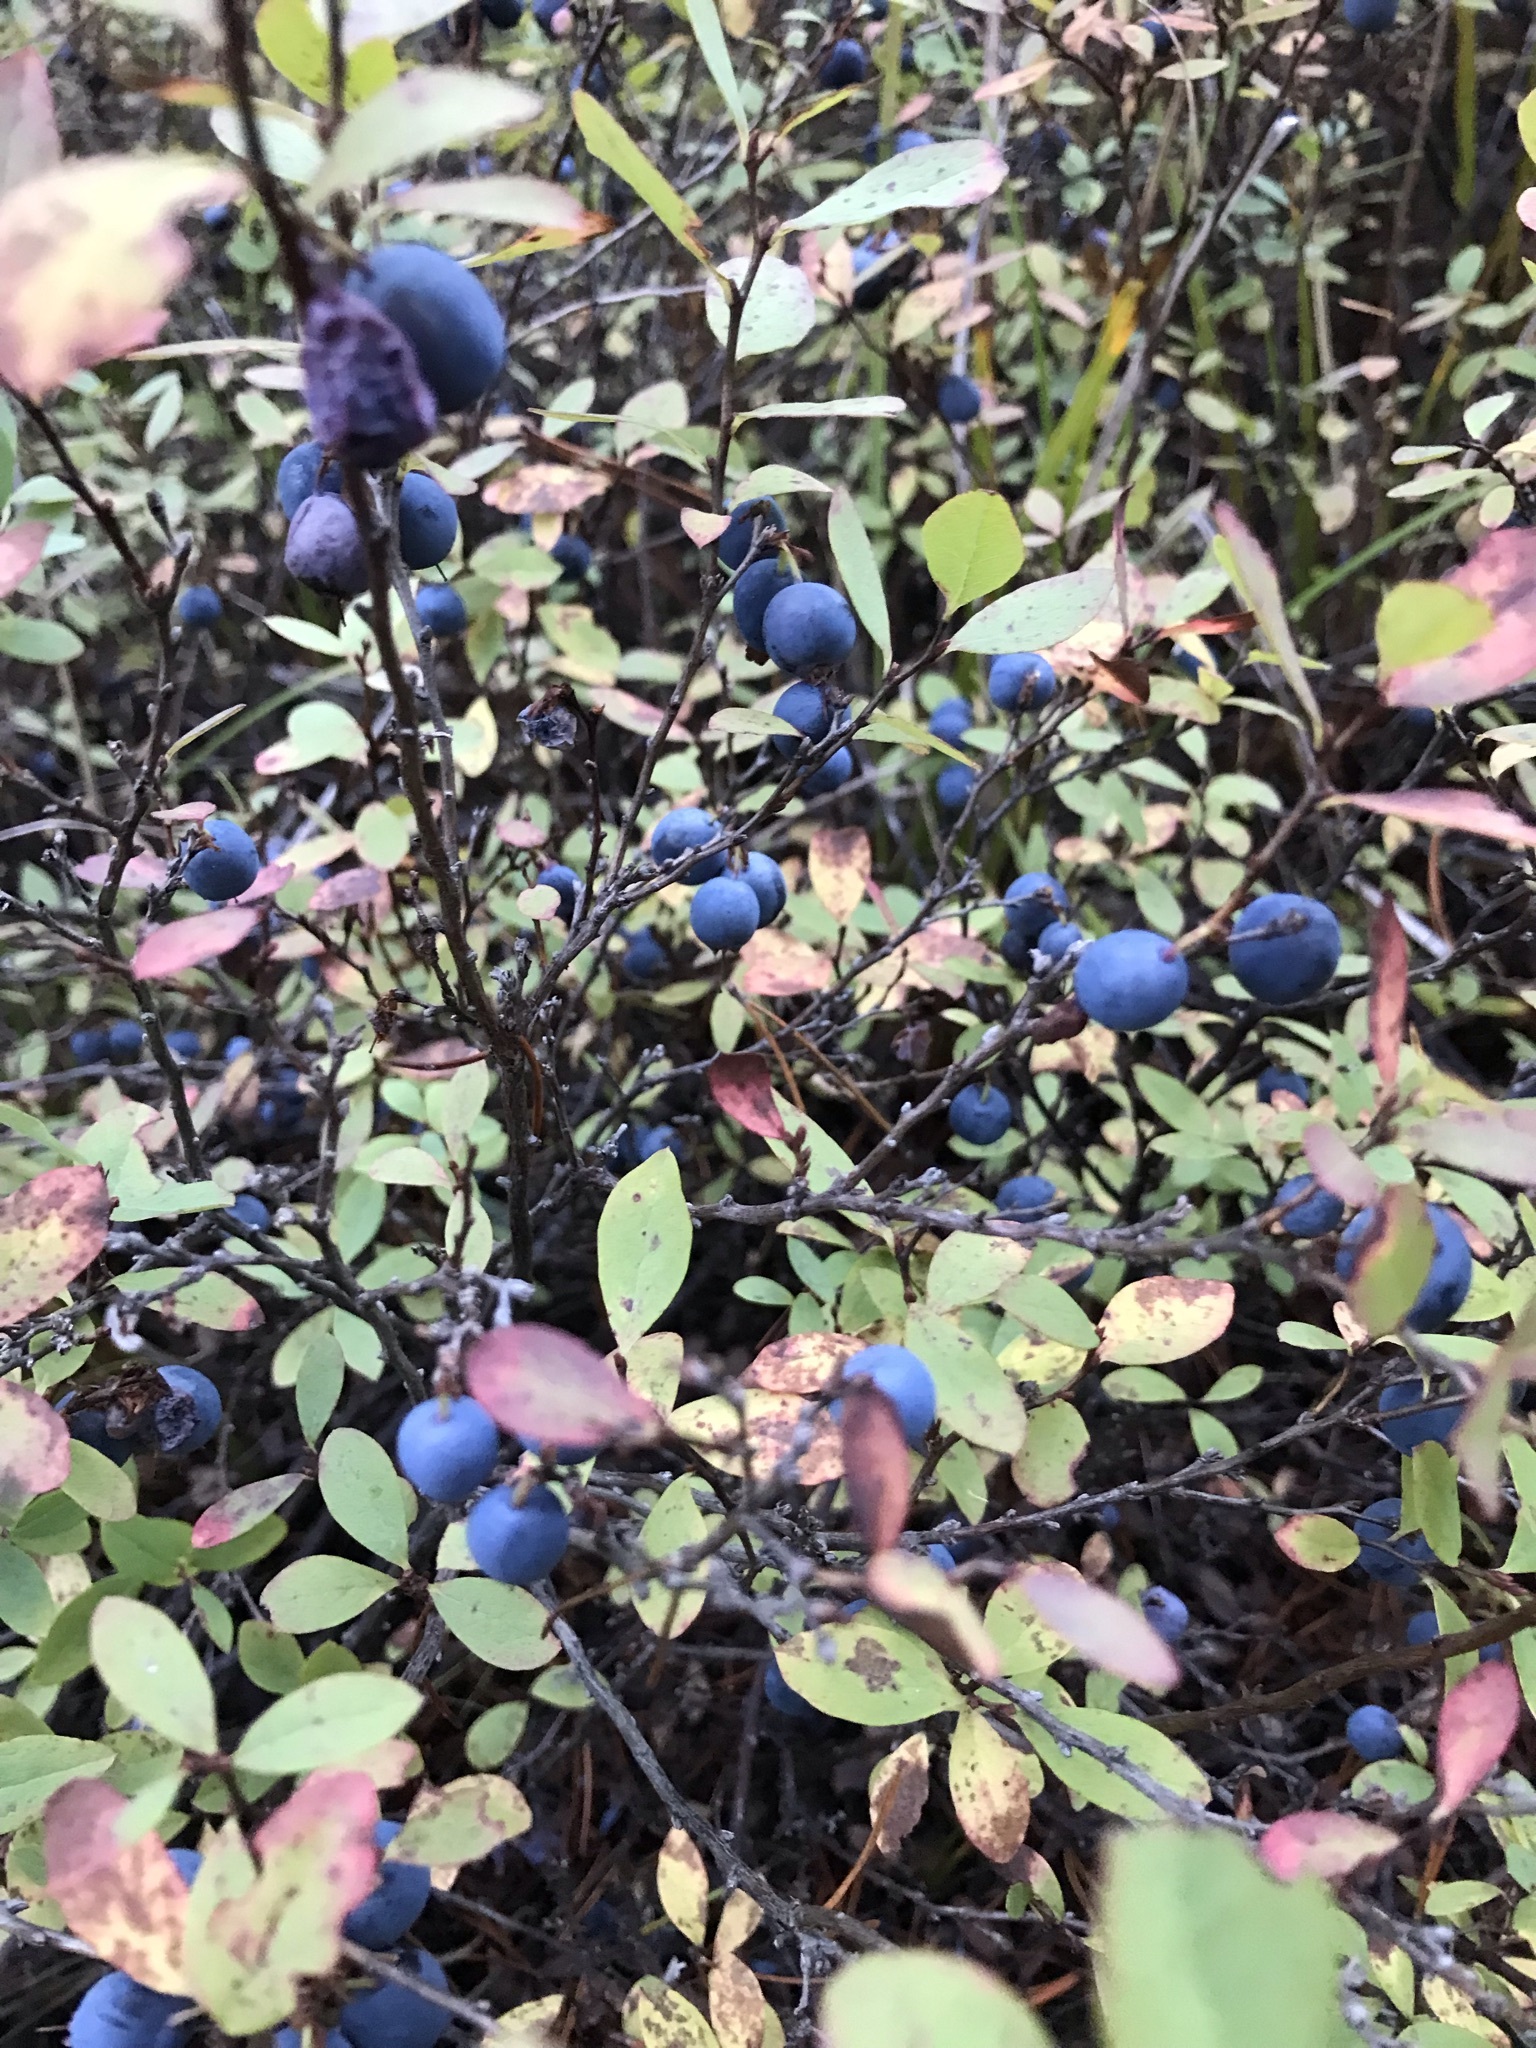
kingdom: Plantae
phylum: Tracheophyta
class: Magnoliopsida
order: Ericales
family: Ericaceae
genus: Vaccinium
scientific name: Vaccinium uliginosum
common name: Bog bilberry
